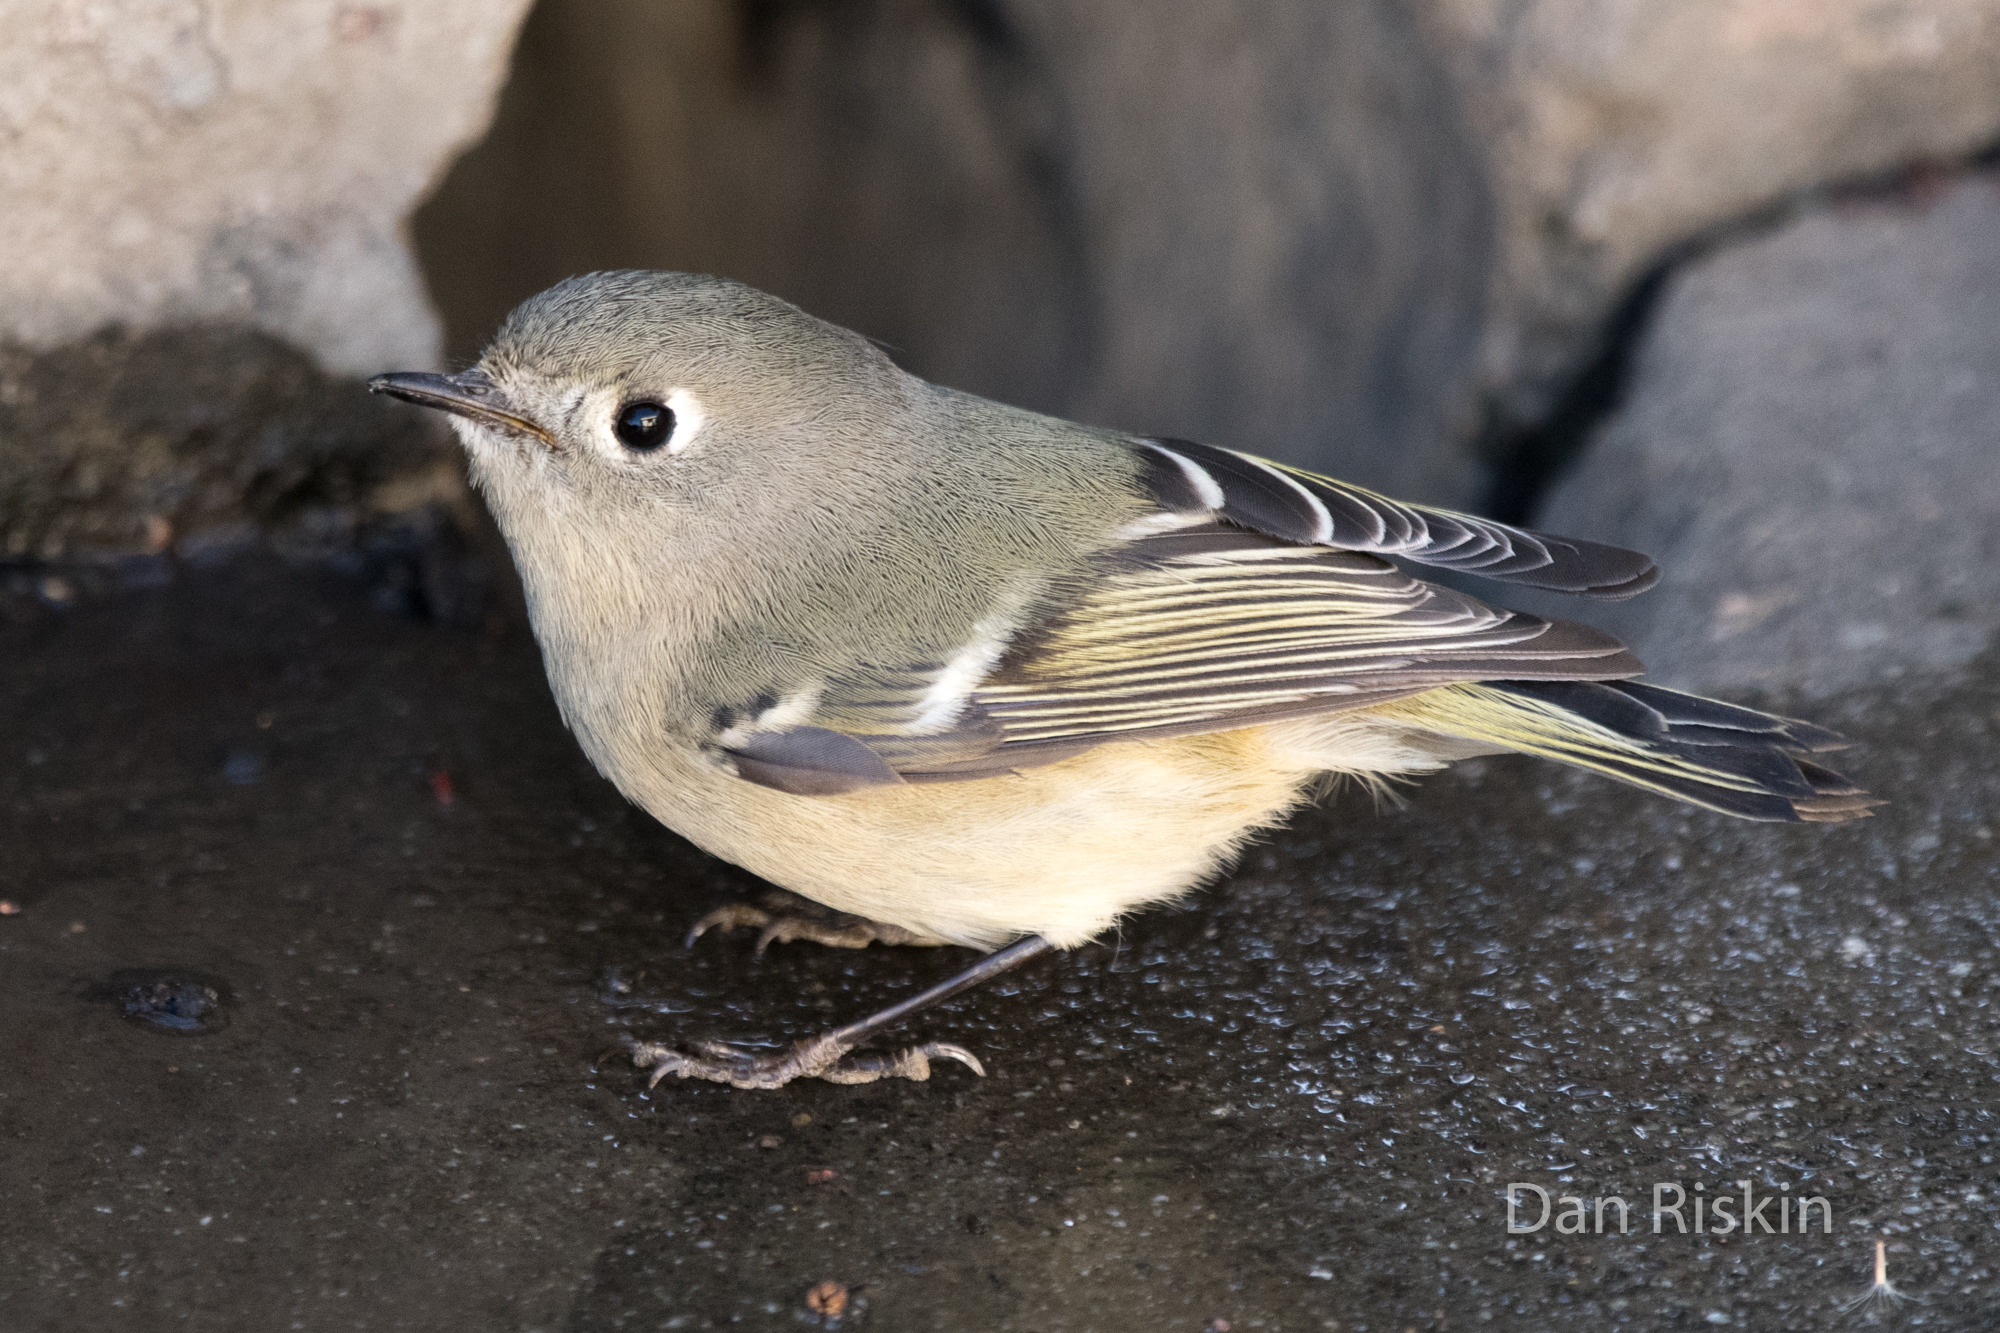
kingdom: Animalia
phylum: Chordata
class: Aves
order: Passeriformes
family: Regulidae
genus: Regulus
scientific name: Regulus calendula
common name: Ruby-crowned kinglet
